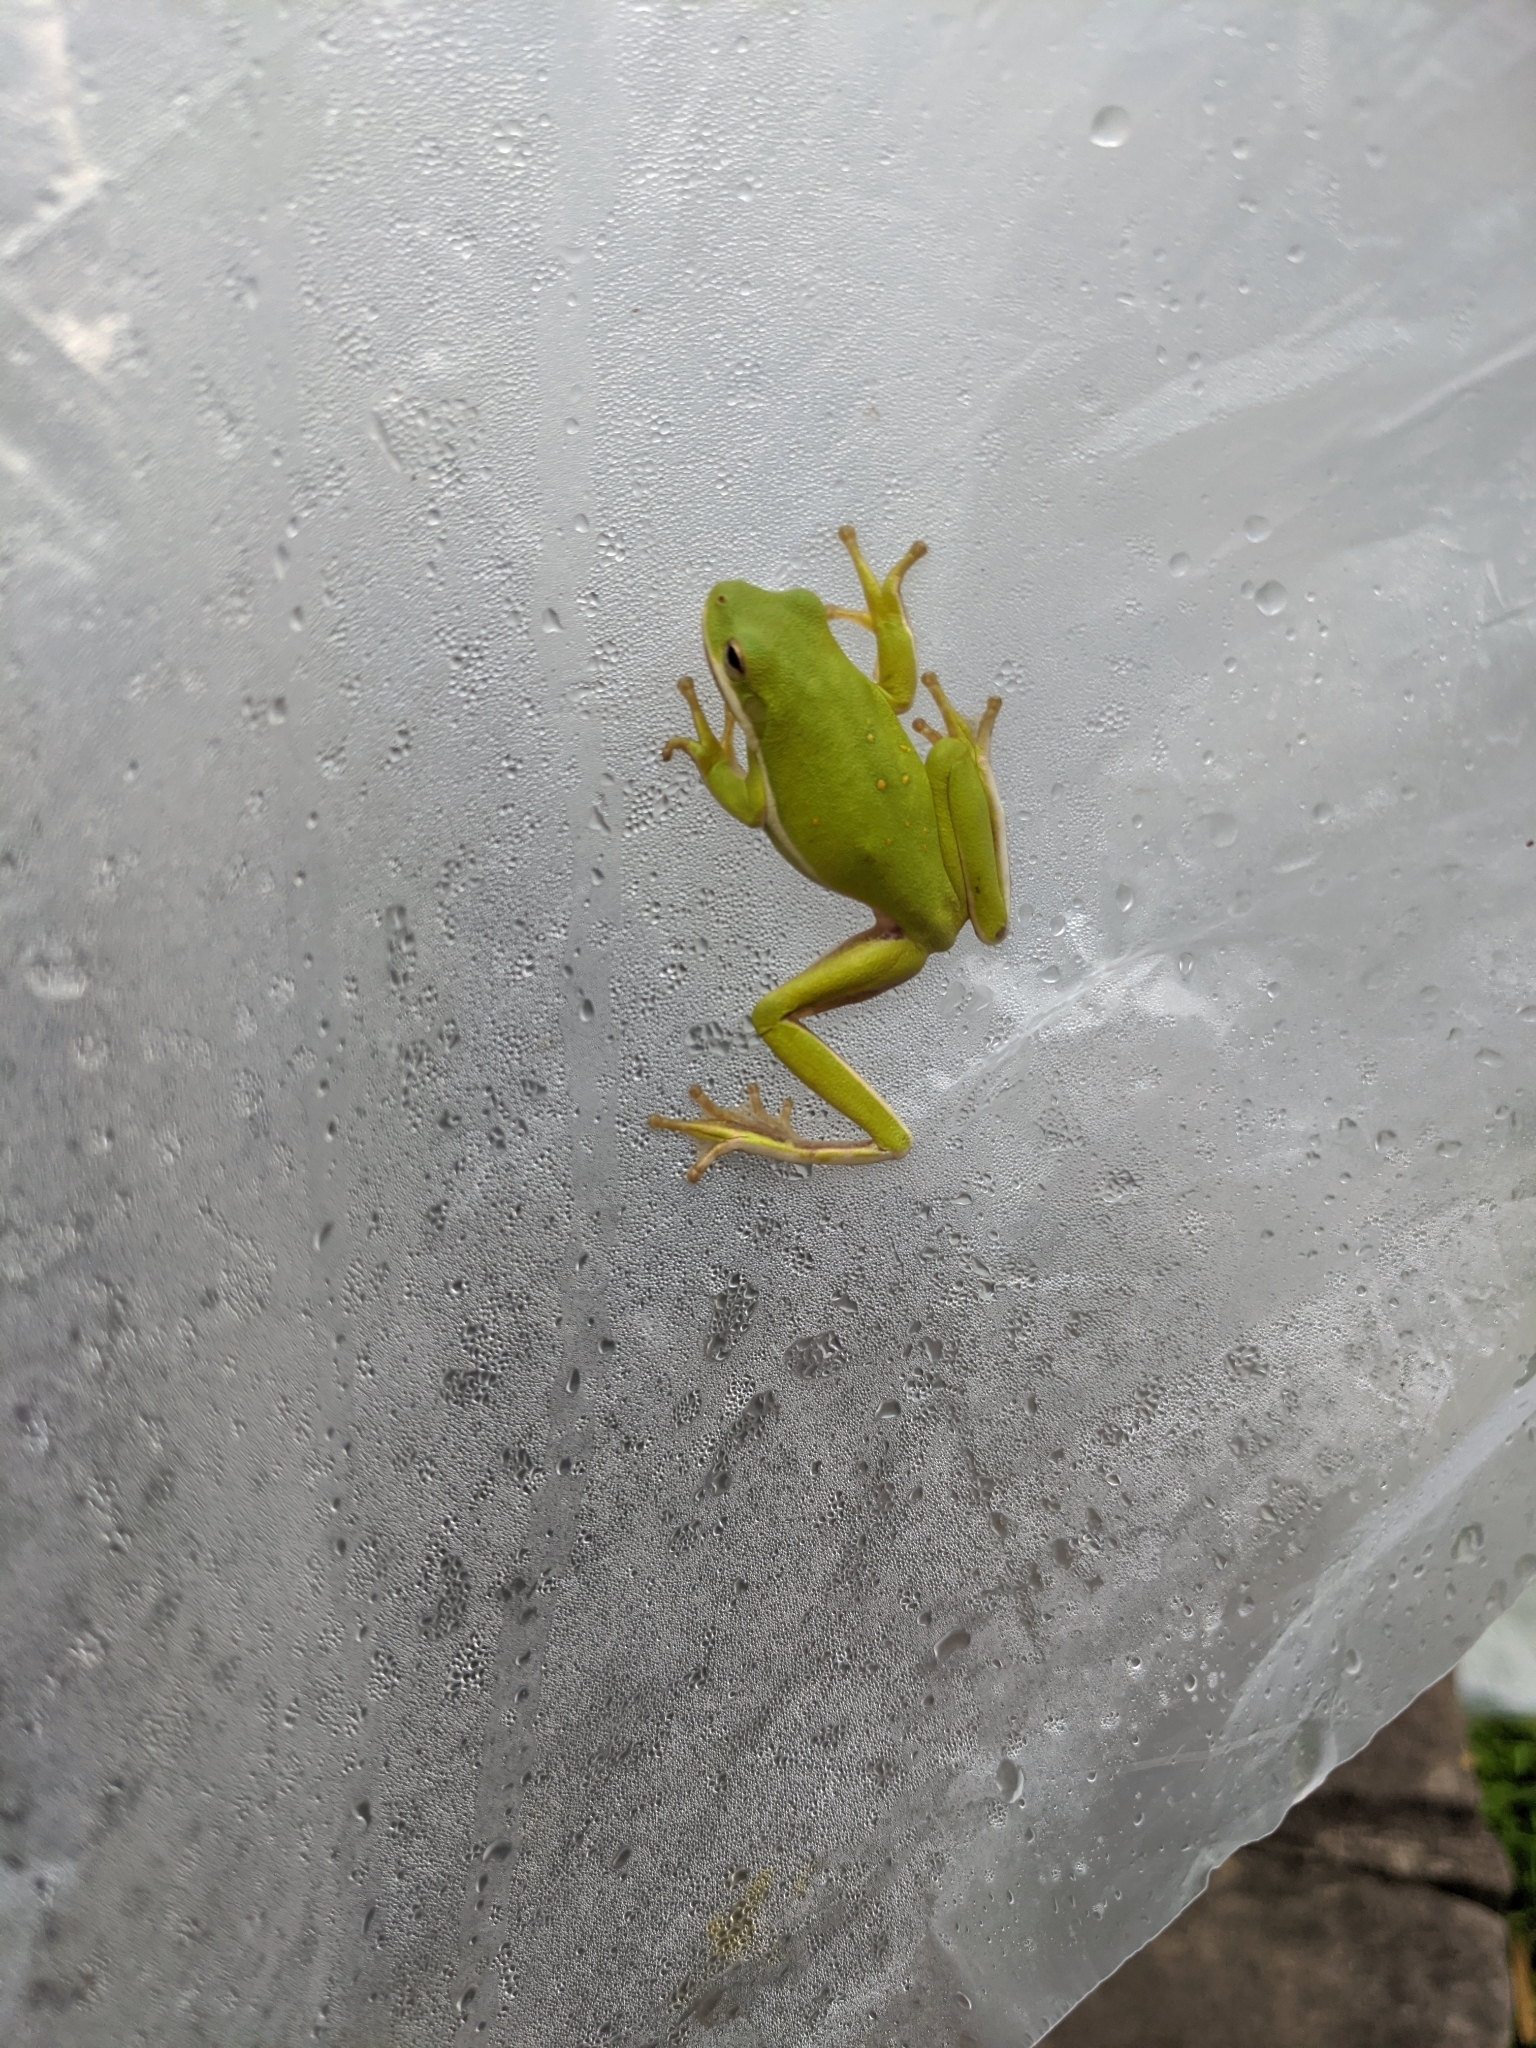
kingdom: Animalia
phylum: Chordata
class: Amphibia
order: Anura
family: Hylidae
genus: Dryophytes
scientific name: Dryophytes cinereus
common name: Green treefrog
